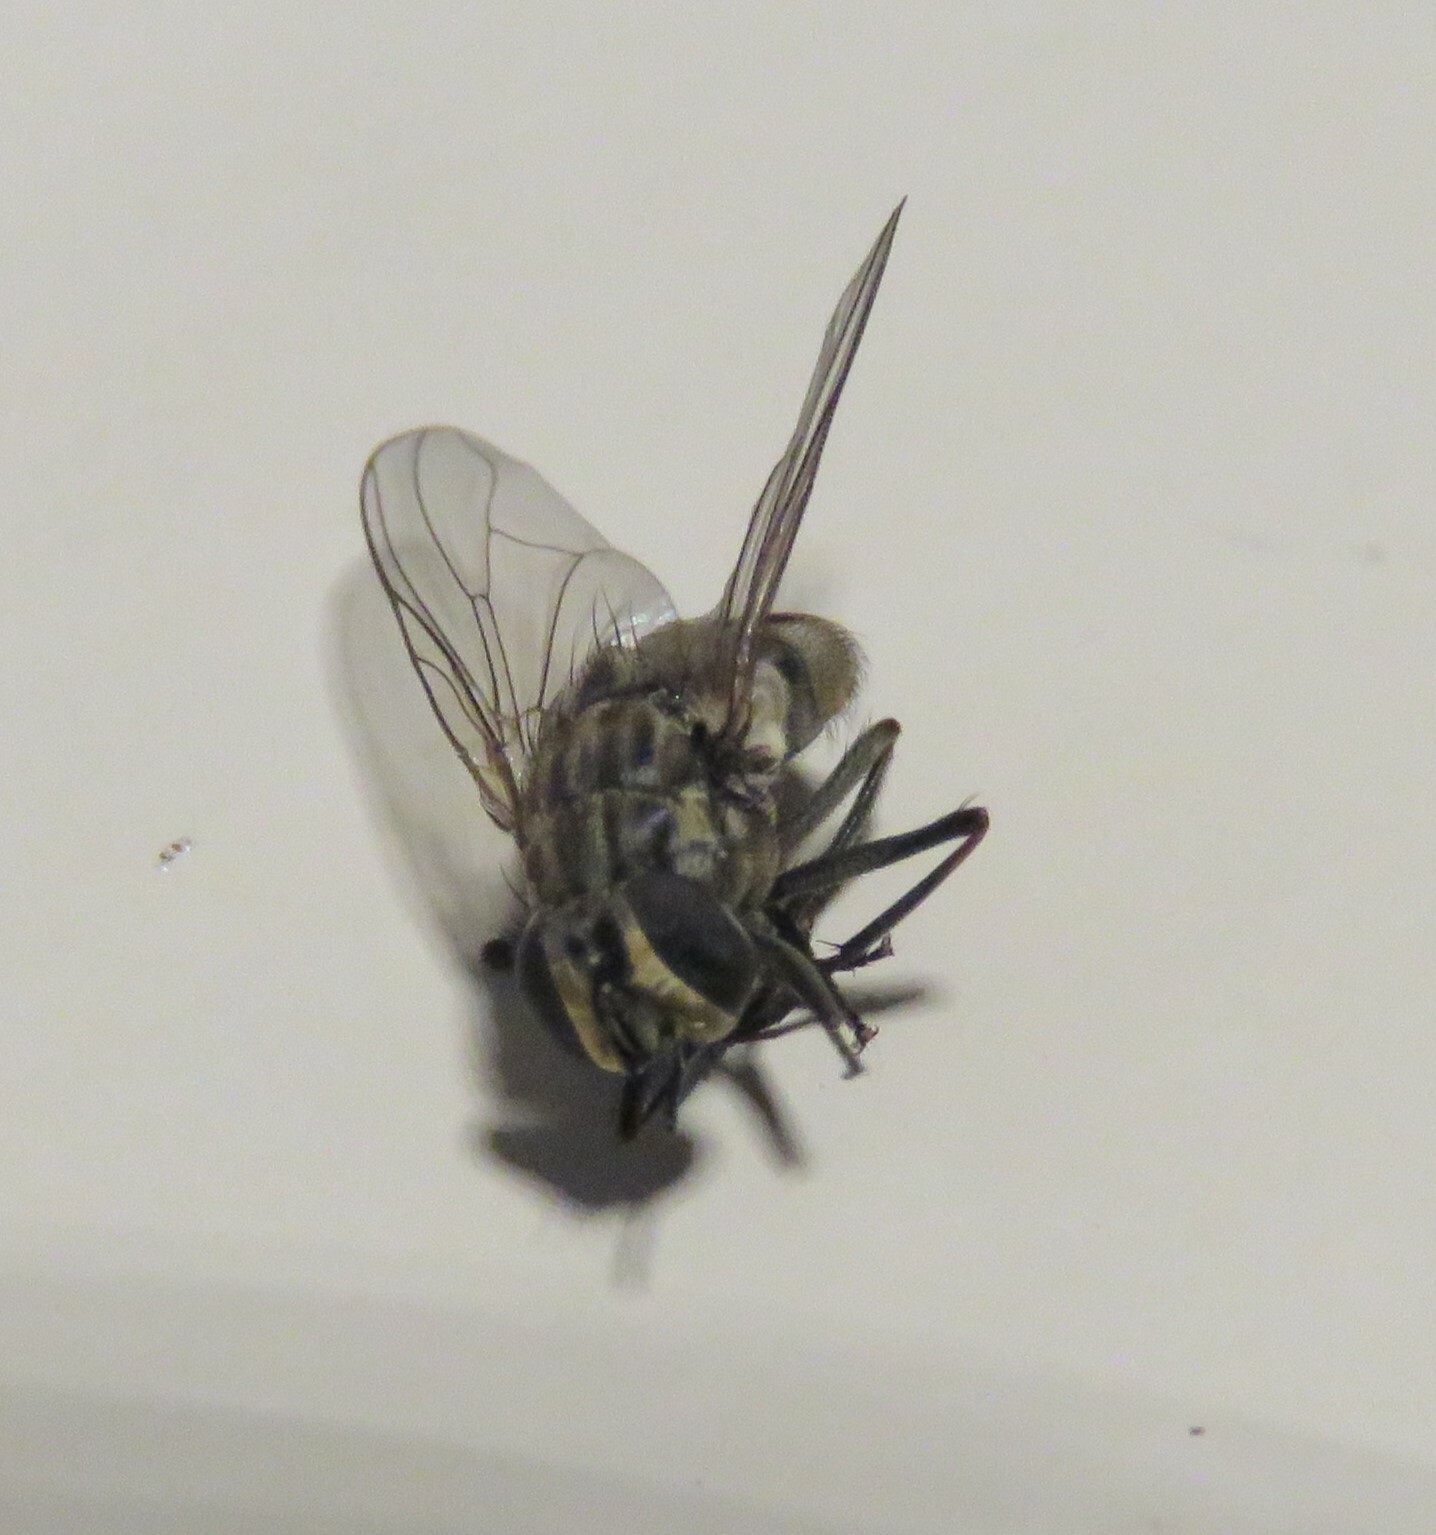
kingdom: Animalia
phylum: Arthropoda
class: Insecta
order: Diptera
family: Muscidae
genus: Stomoxys
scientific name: Stomoxys calcitrans
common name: Stable fly
